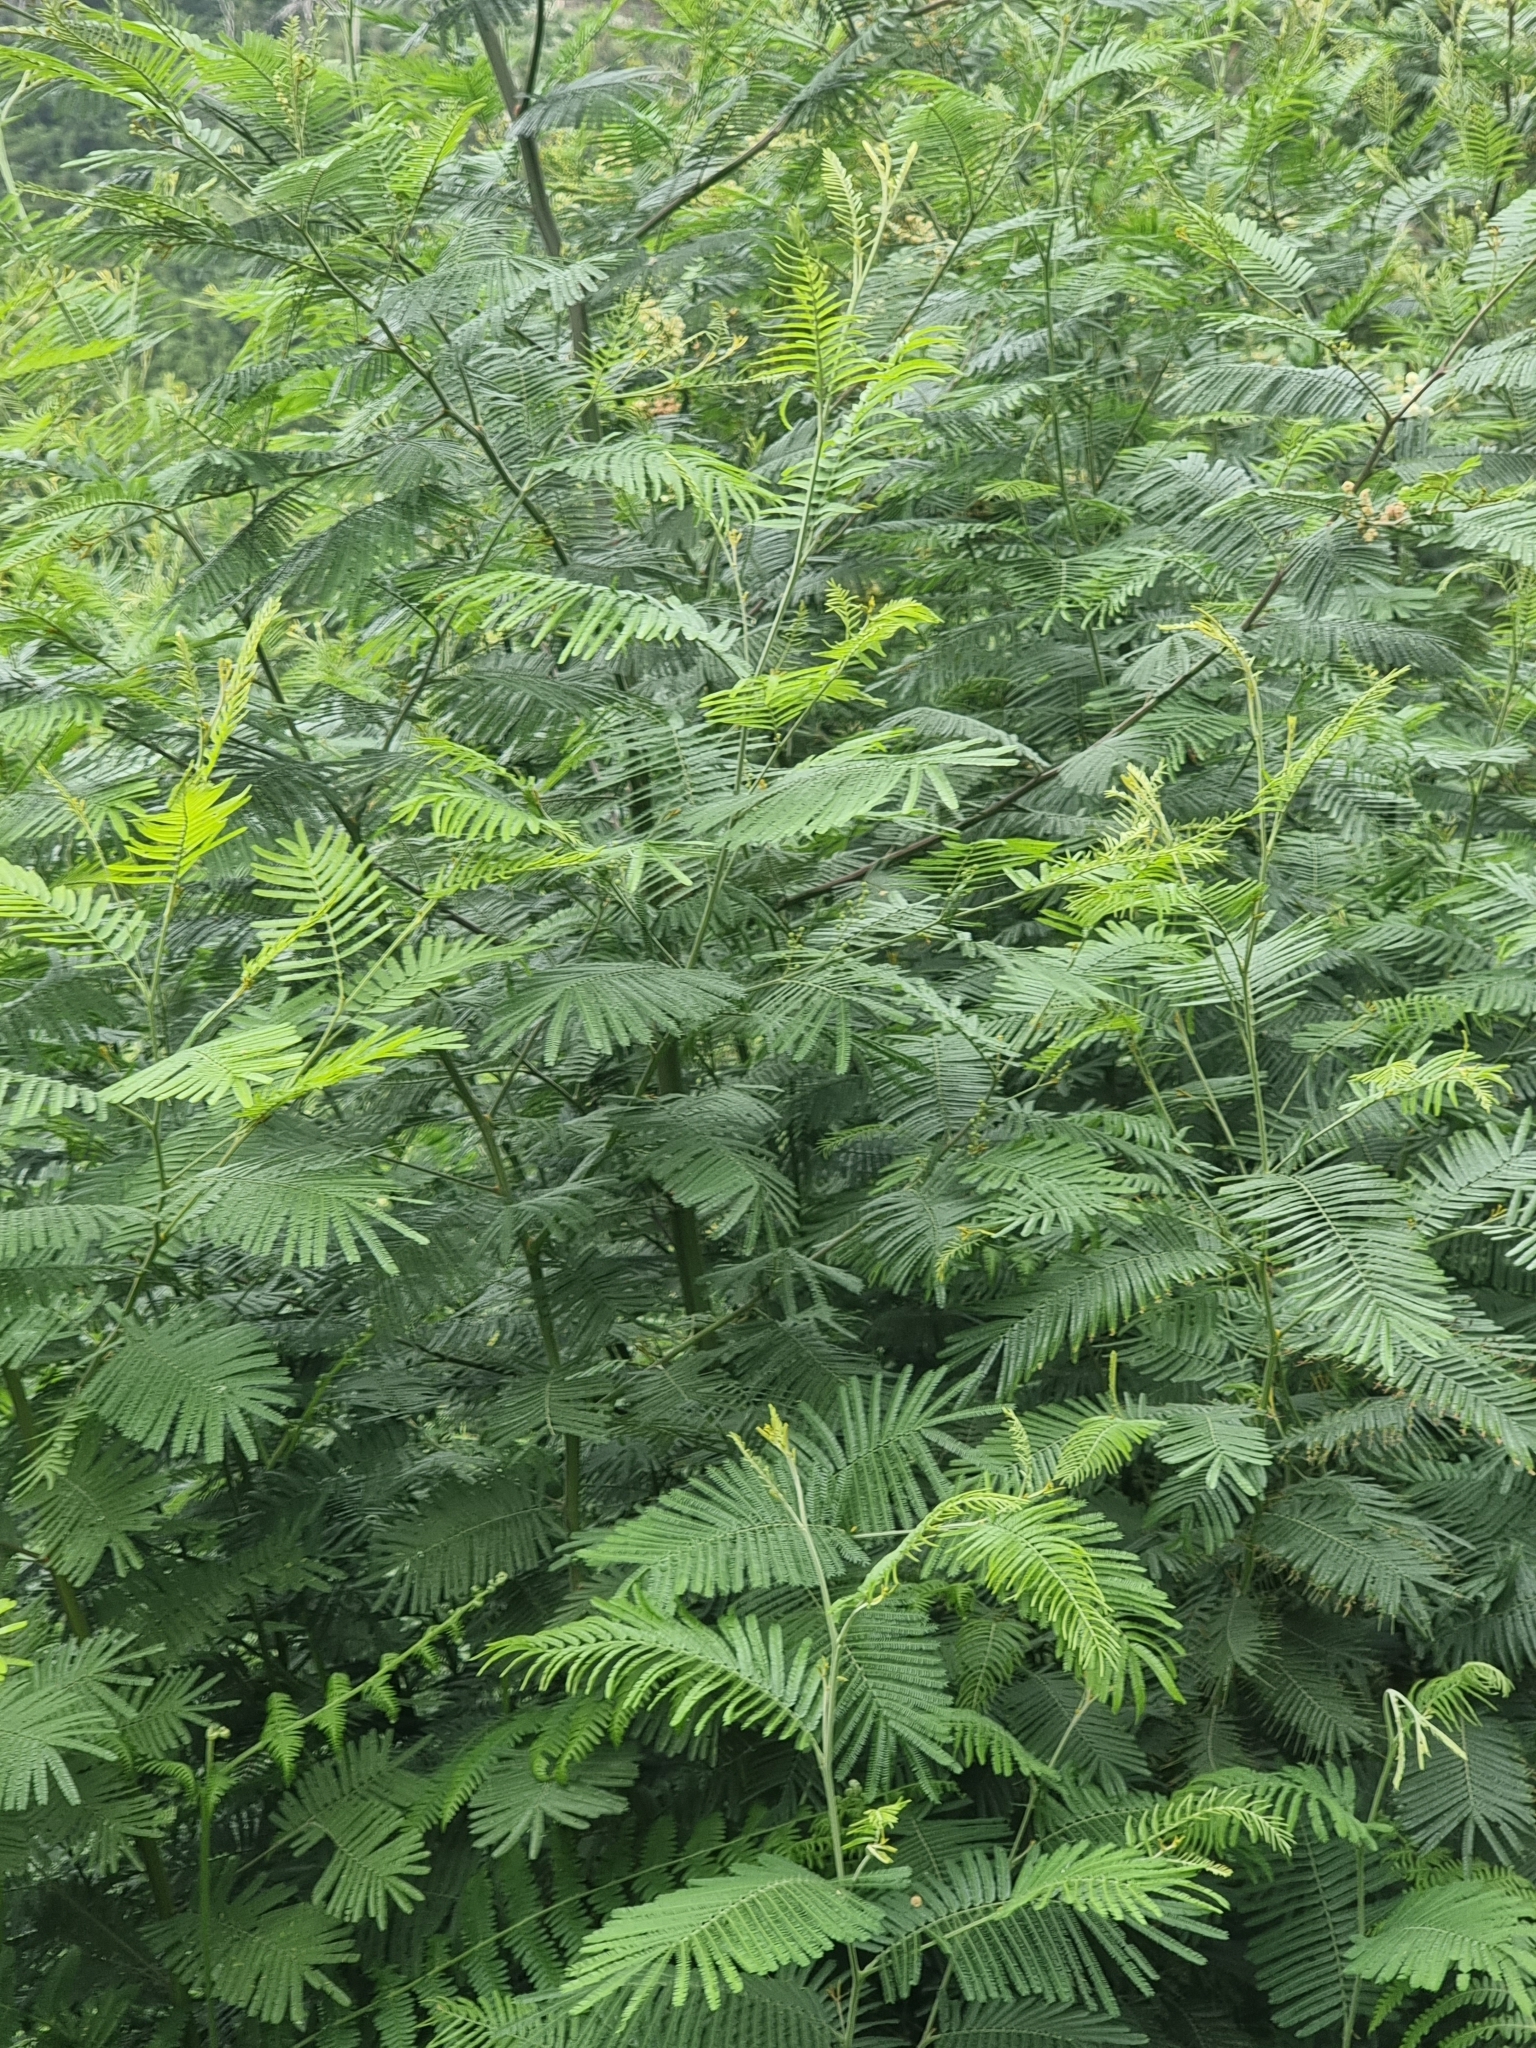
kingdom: Plantae
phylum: Tracheophyta
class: Magnoliopsida
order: Fabales
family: Fabaceae
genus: Acacia
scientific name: Acacia mearnsii
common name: Black wattle
